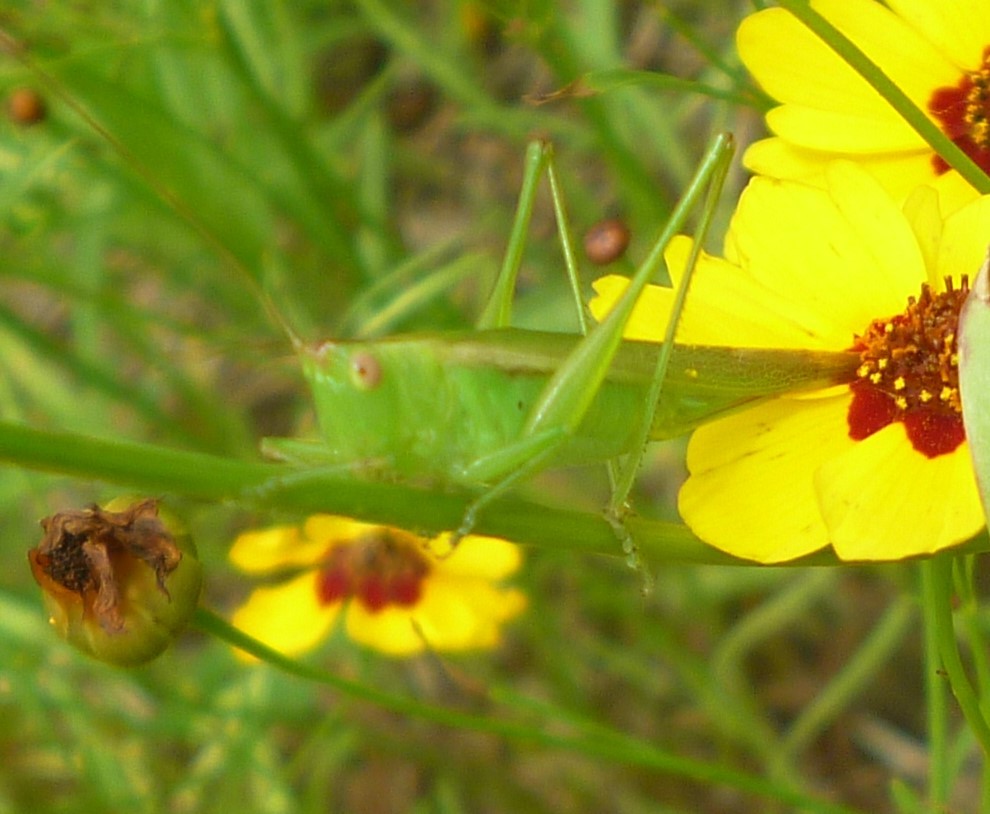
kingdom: Animalia
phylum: Arthropoda
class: Insecta
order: Orthoptera
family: Tettigoniidae
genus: Conocephalus
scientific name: Conocephalus fasciatus
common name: Slender meadow katydid
